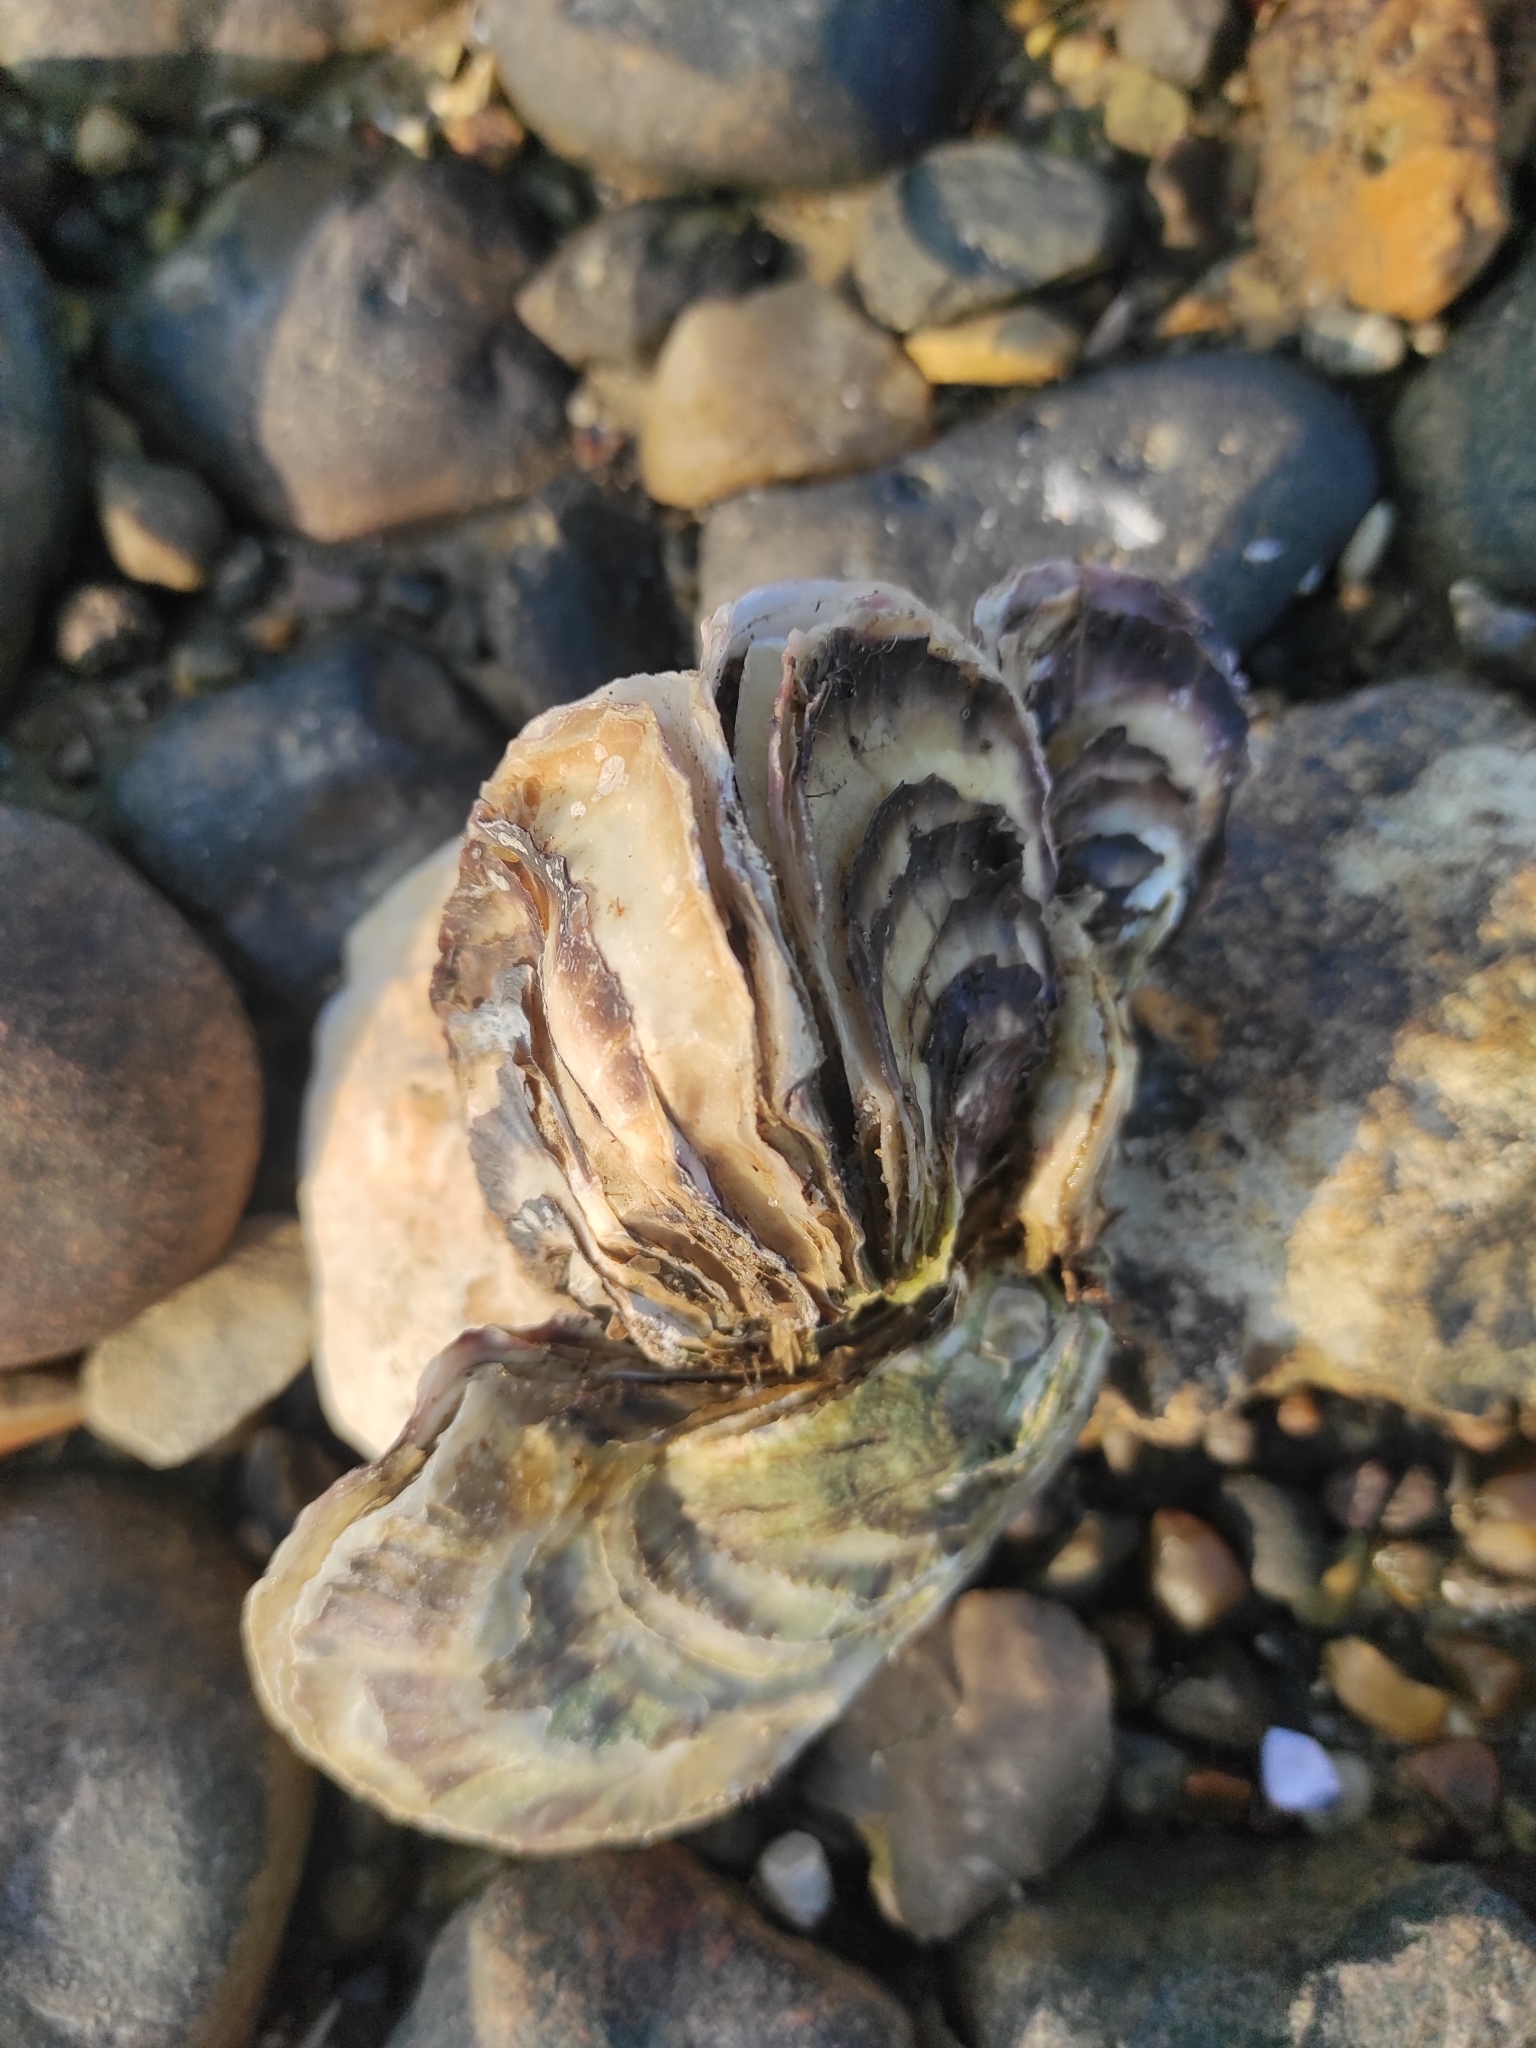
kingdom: Animalia
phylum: Mollusca
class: Bivalvia
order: Ostreida
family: Ostreidae
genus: Magallana
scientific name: Magallana gigas
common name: Pacific oyster
